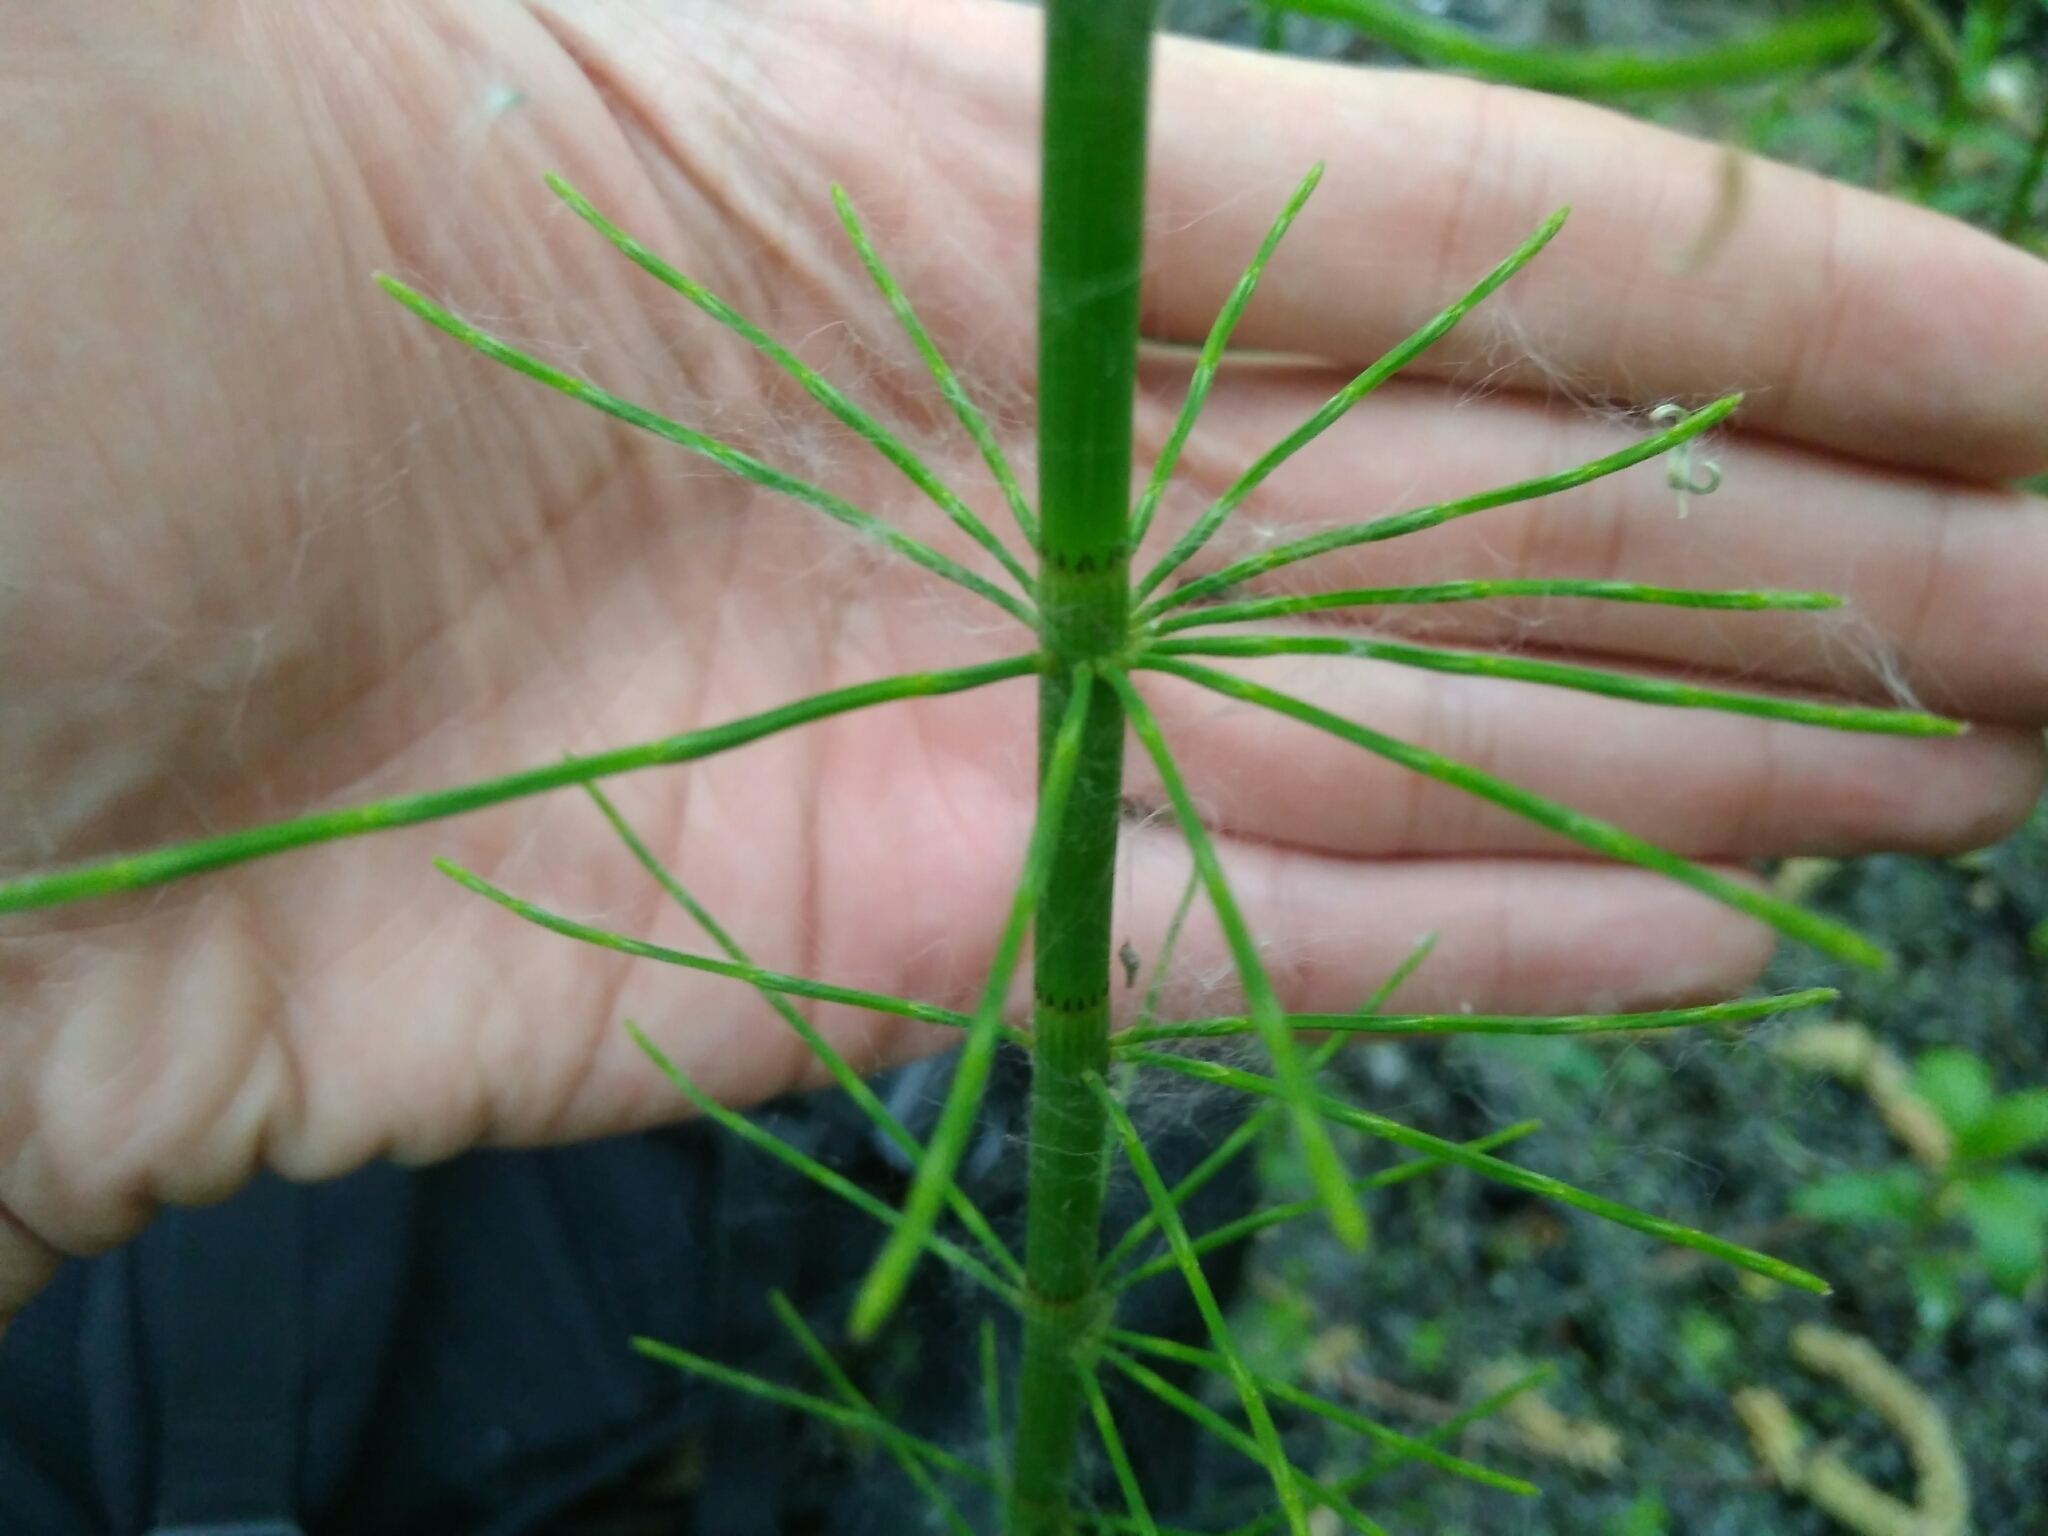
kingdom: Plantae
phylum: Tracheophyta
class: Polypodiopsida
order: Equisetales
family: Equisetaceae
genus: Equisetum
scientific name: Equisetum fluviatile
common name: Water horsetail
